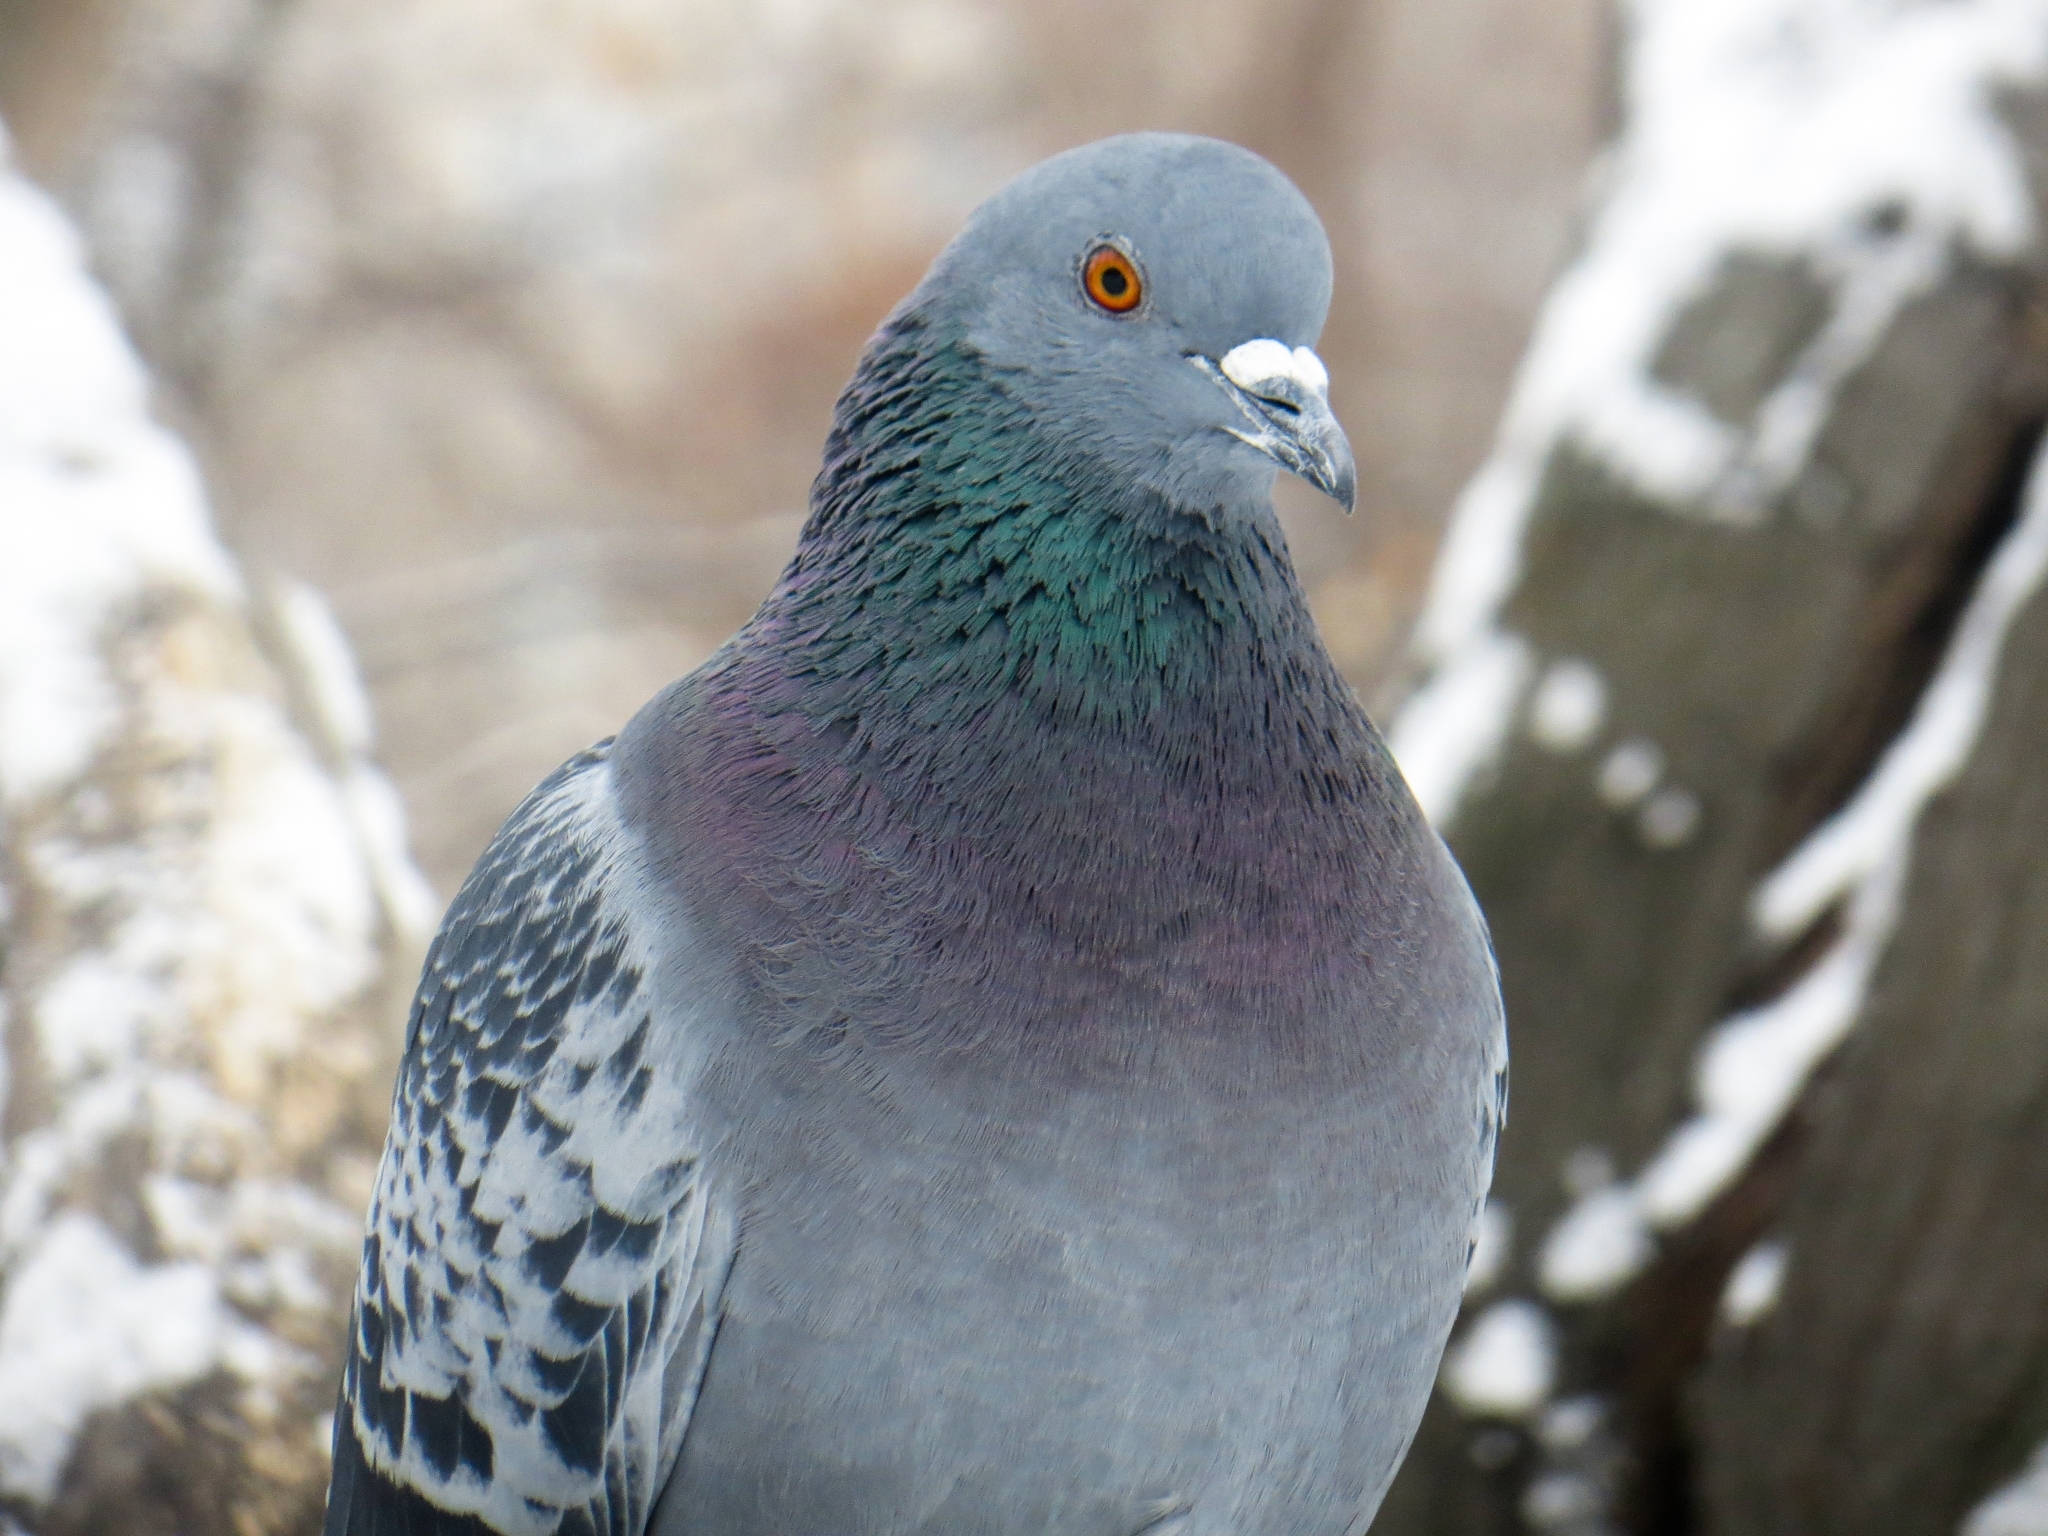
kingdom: Animalia
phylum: Chordata
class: Aves
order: Columbiformes
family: Columbidae
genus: Columba
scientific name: Columba livia
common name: Rock pigeon
